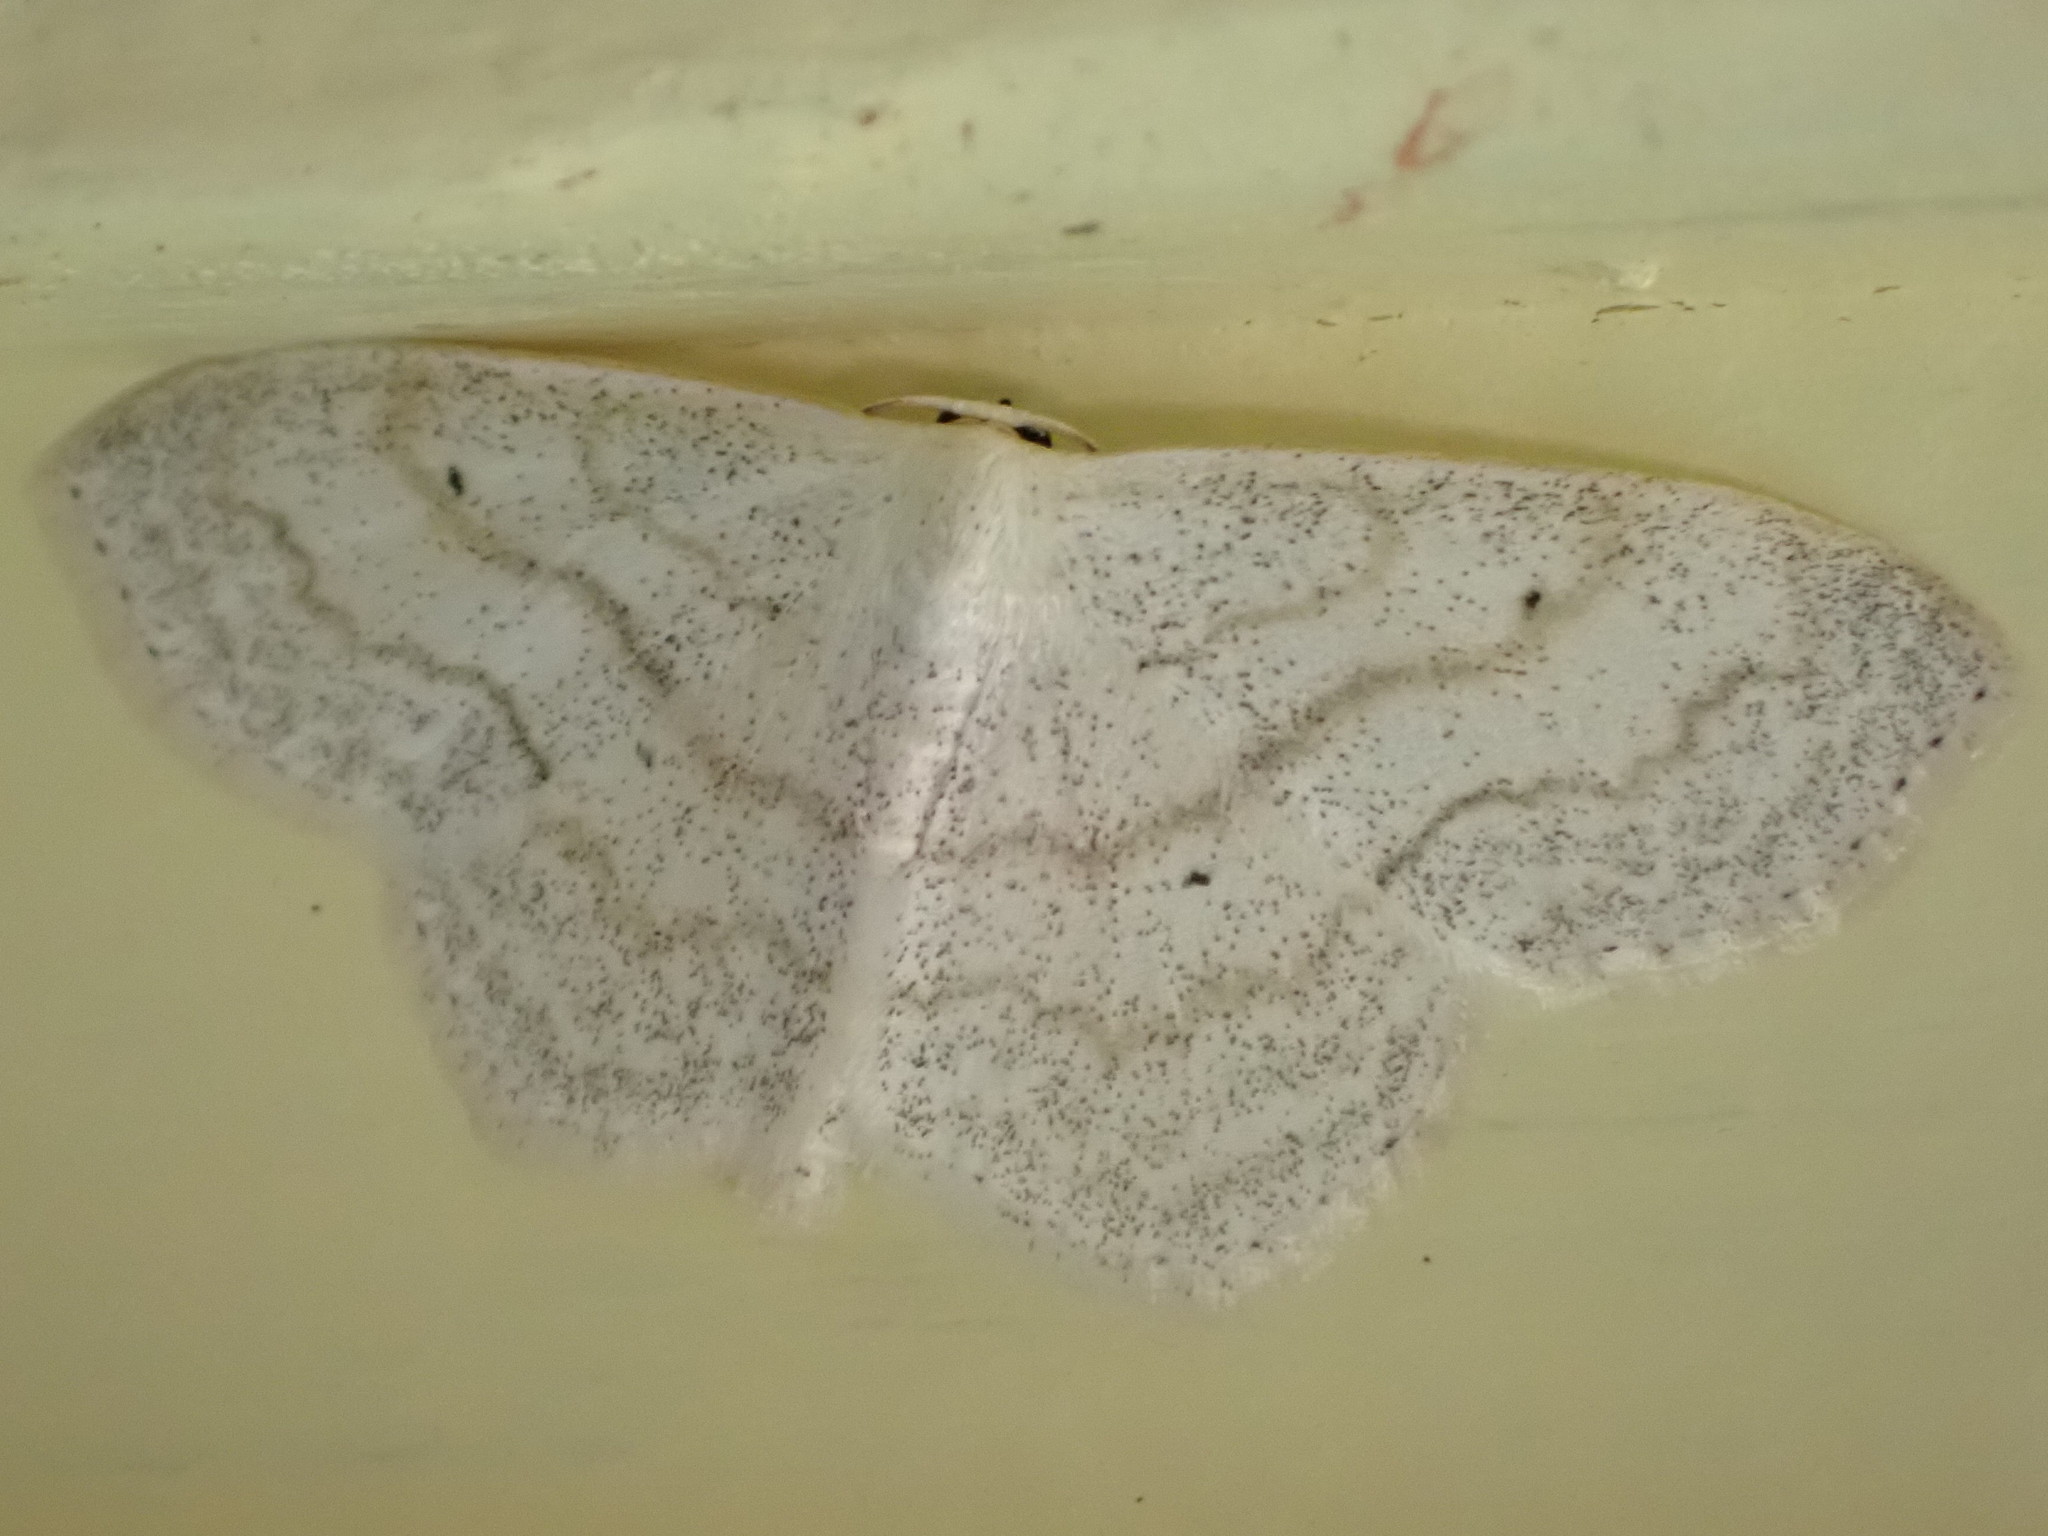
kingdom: Animalia
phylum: Arthropoda
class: Insecta
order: Lepidoptera
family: Geometridae
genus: Scopula
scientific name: Scopula limboundata
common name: Large lace border
